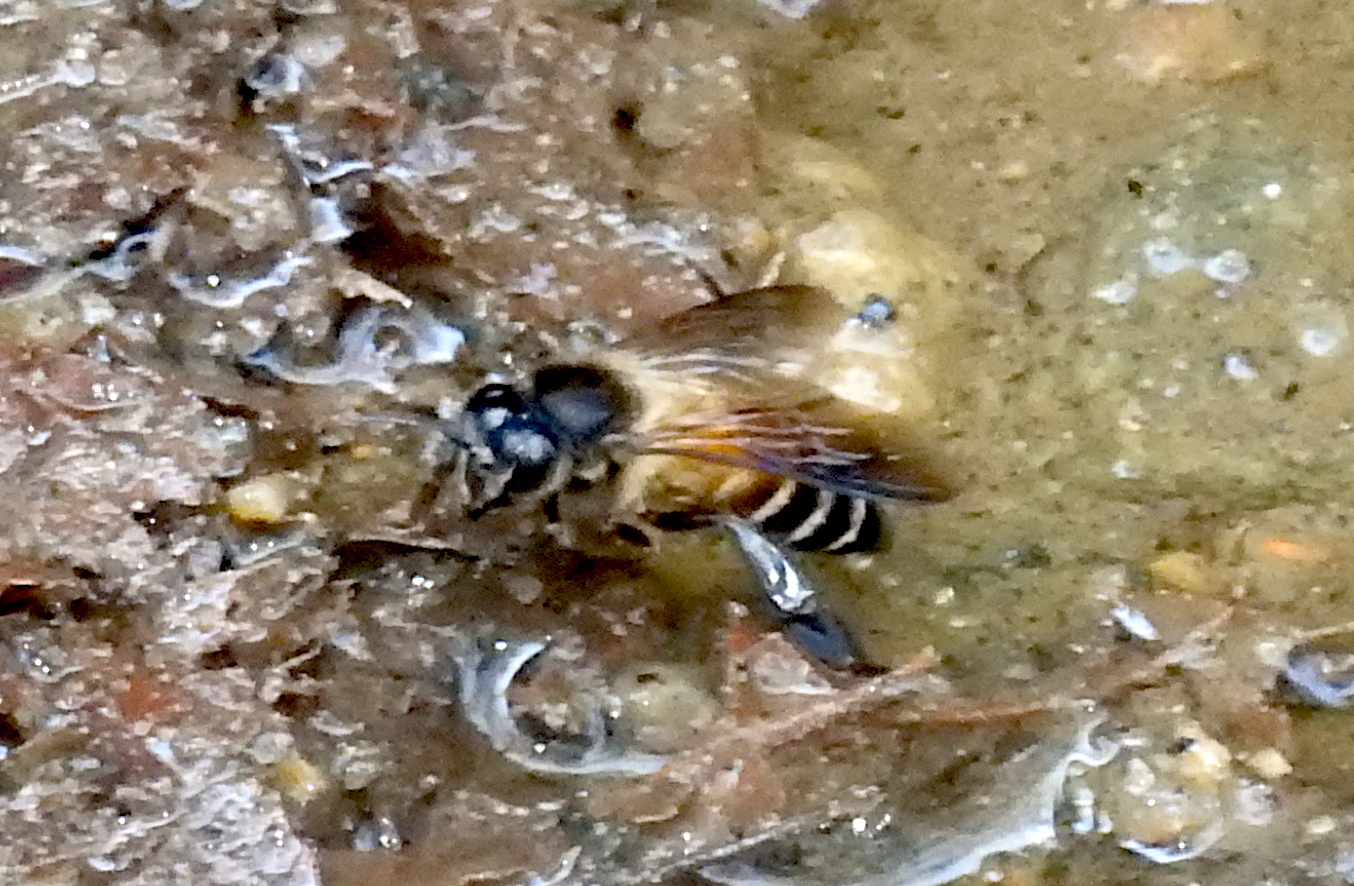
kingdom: Animalia
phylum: Arthropoda
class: Insecta
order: Hymenoptera
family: Apidae
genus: Apis
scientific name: Apis dorsata
